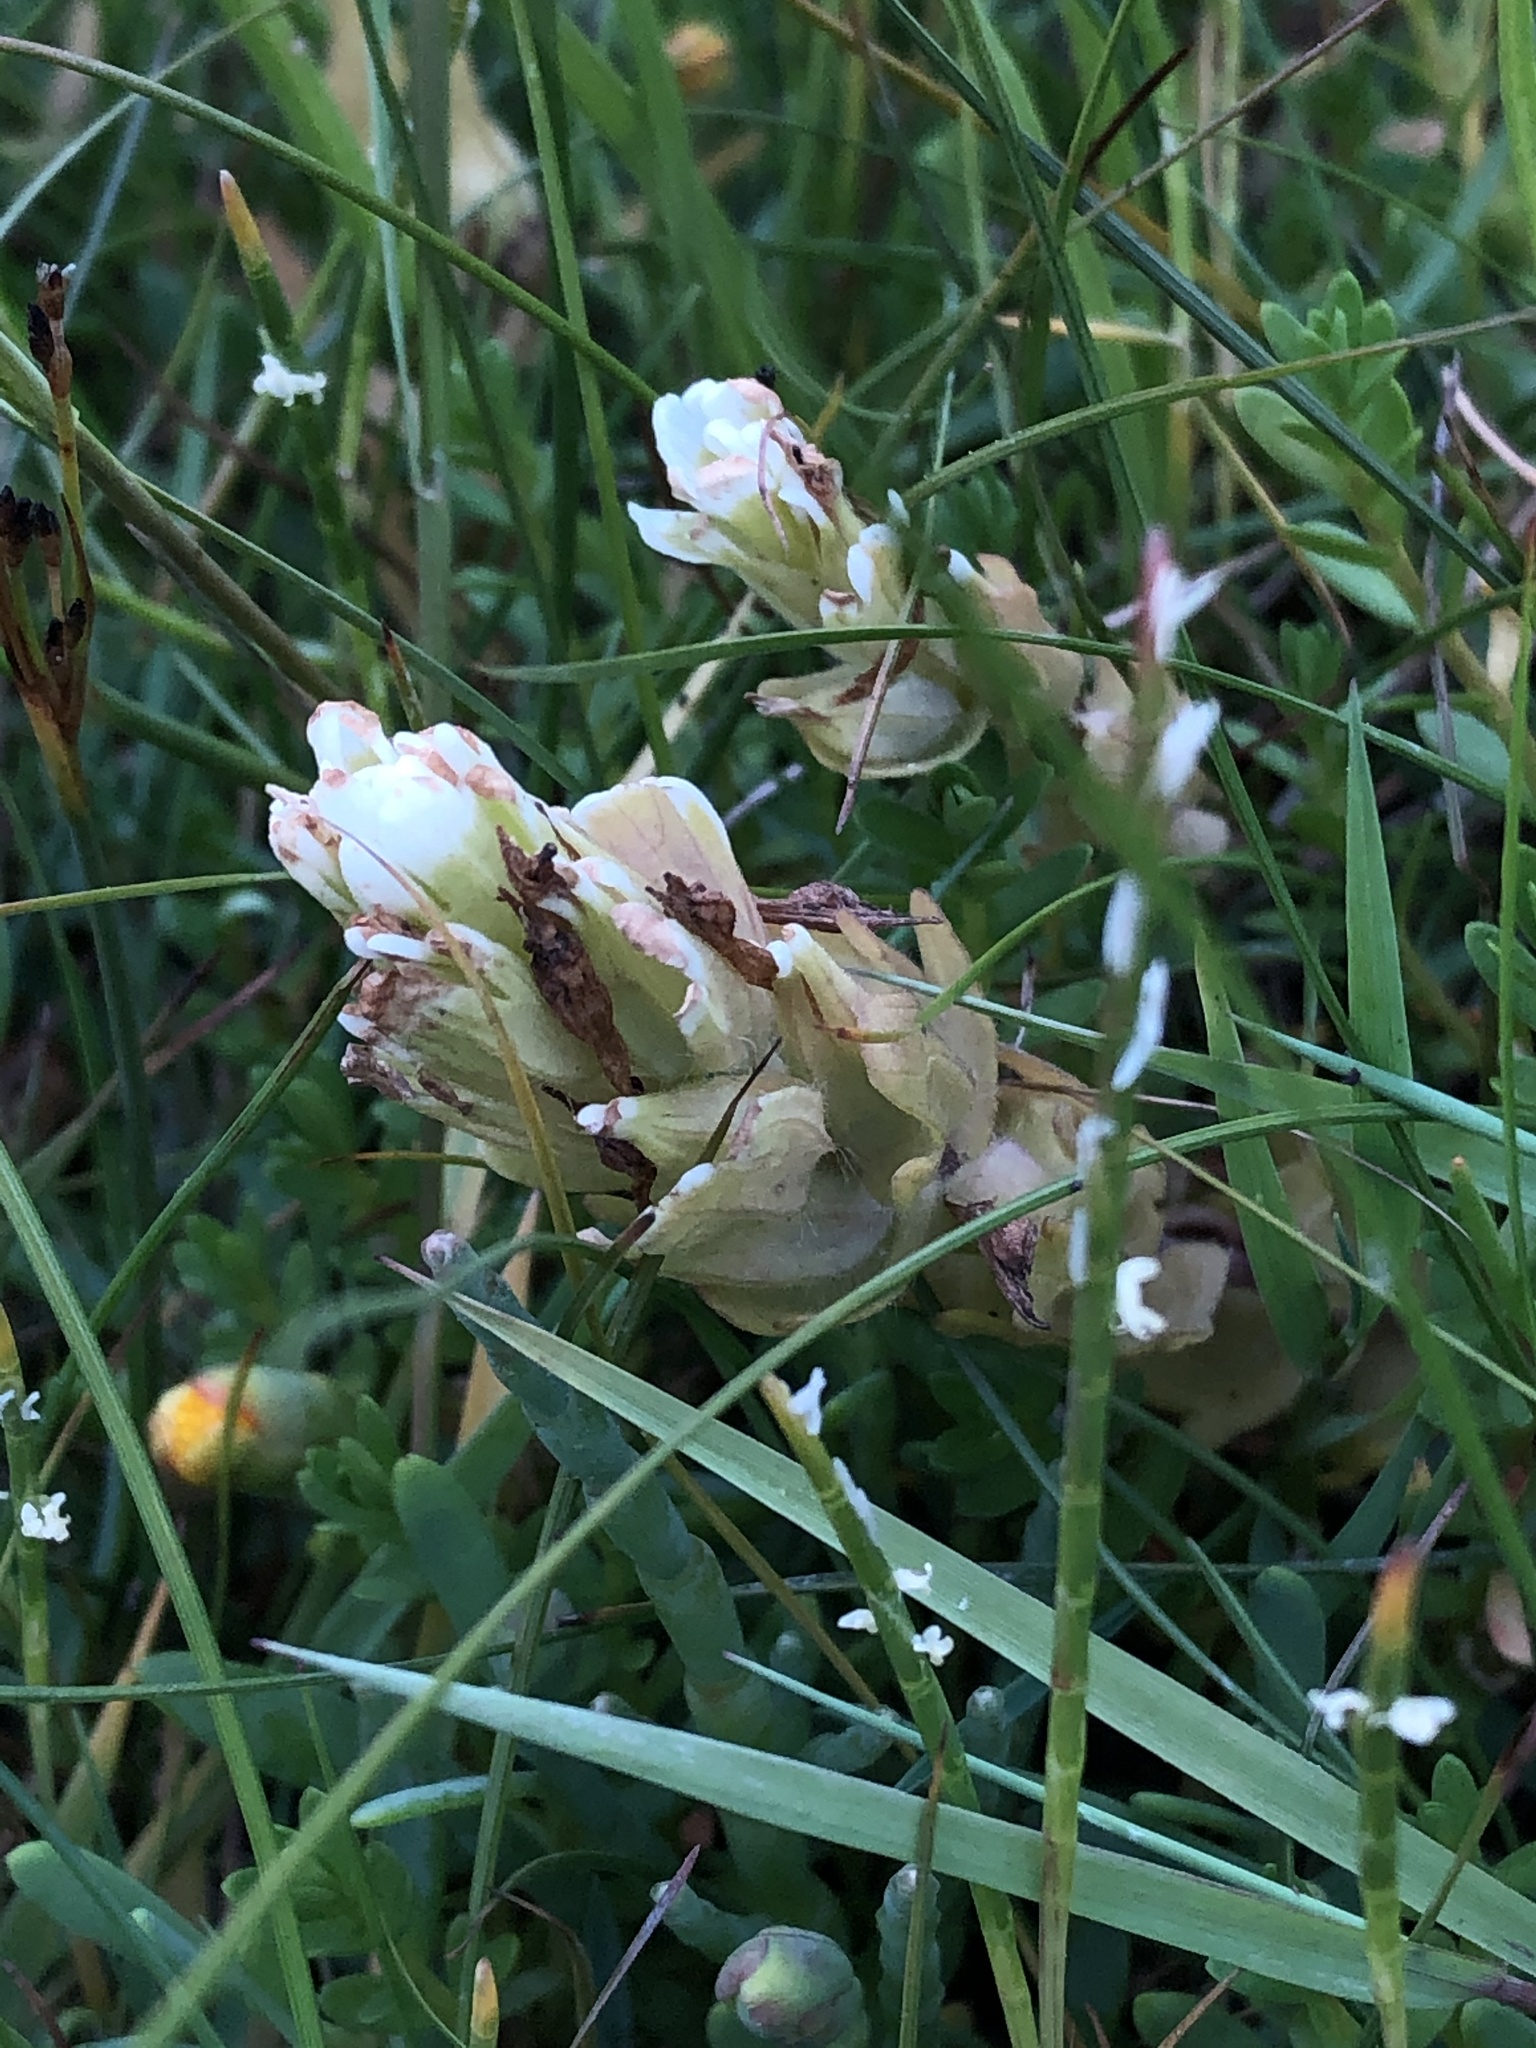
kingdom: Plantae
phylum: Tracheophyta
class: Magnoliopsida
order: Lamiales
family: Orobanchaceae
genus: Castilleja
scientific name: Castilleja ambigua
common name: Johnny-nip
